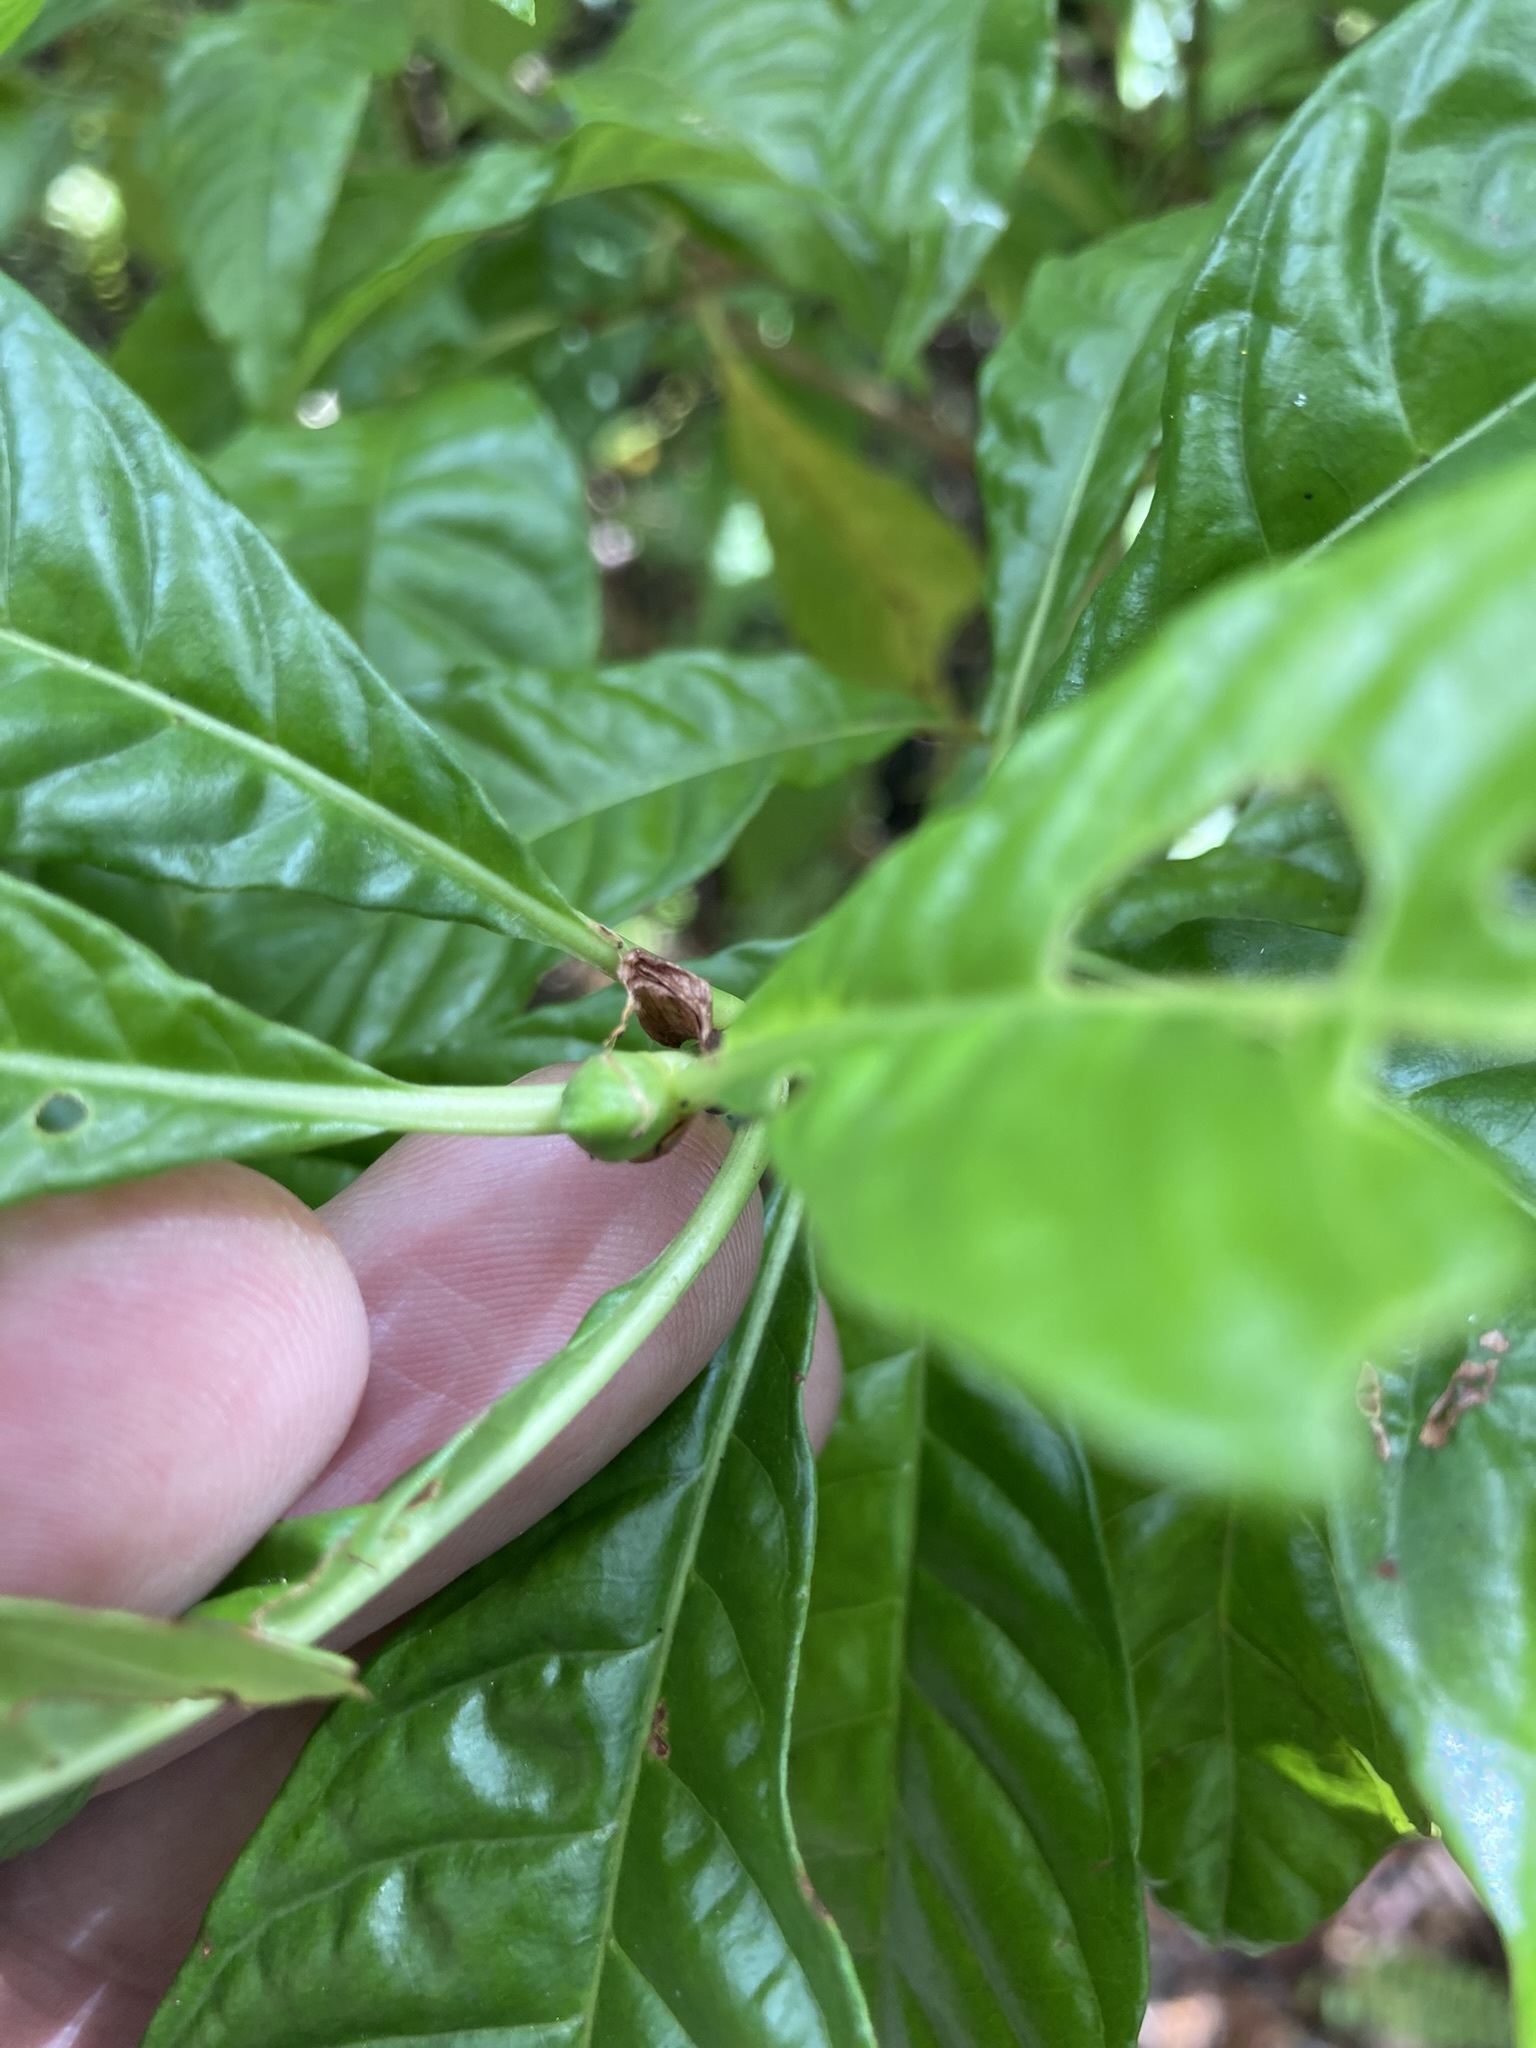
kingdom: Plantae
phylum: Tracheophyta
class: Magnoliopsida
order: Gentianales
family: Rubiaceae
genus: Psychotria
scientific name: Psychotria nervosa
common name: Bastard cankerberry
